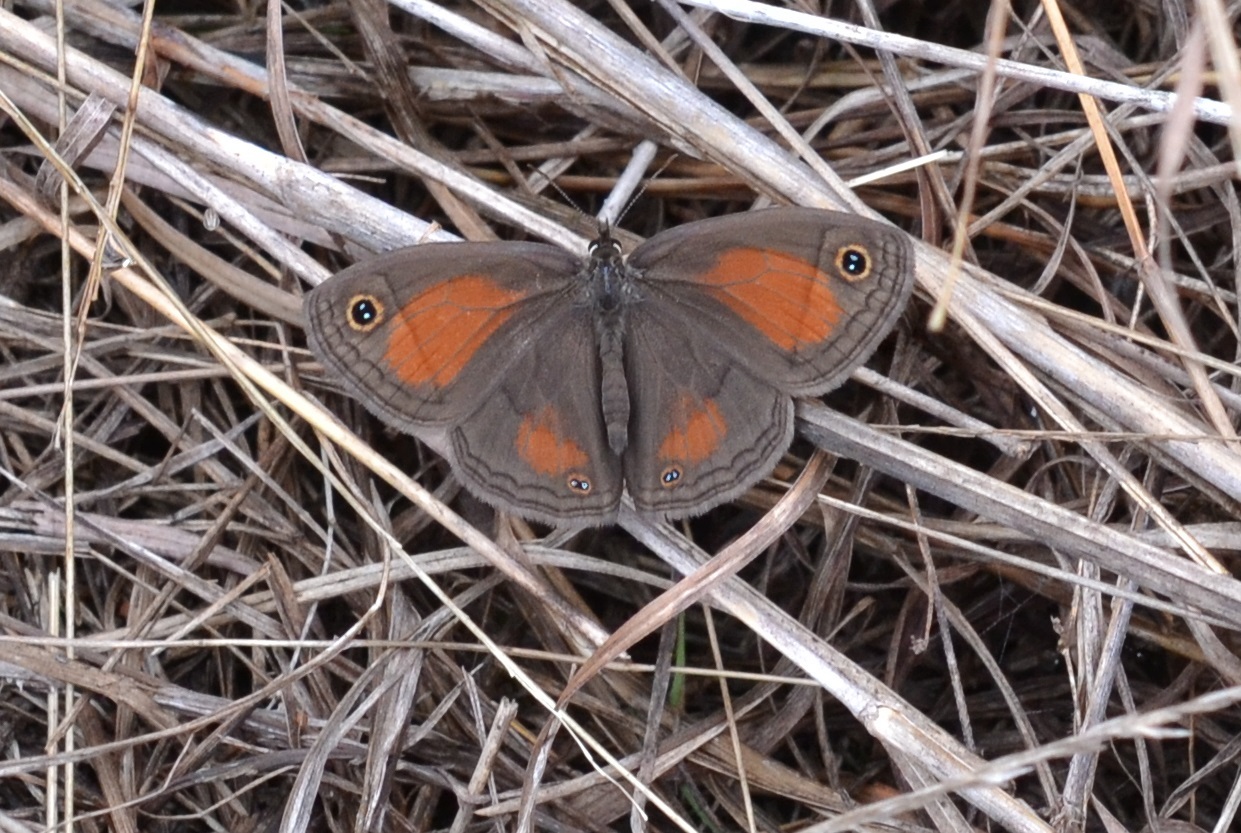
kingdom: Animalia
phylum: Arthropoda
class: Insecta
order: Lepidoptera
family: Nymphalidae
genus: Euptychia
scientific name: Euptychia Cissia rubricata
